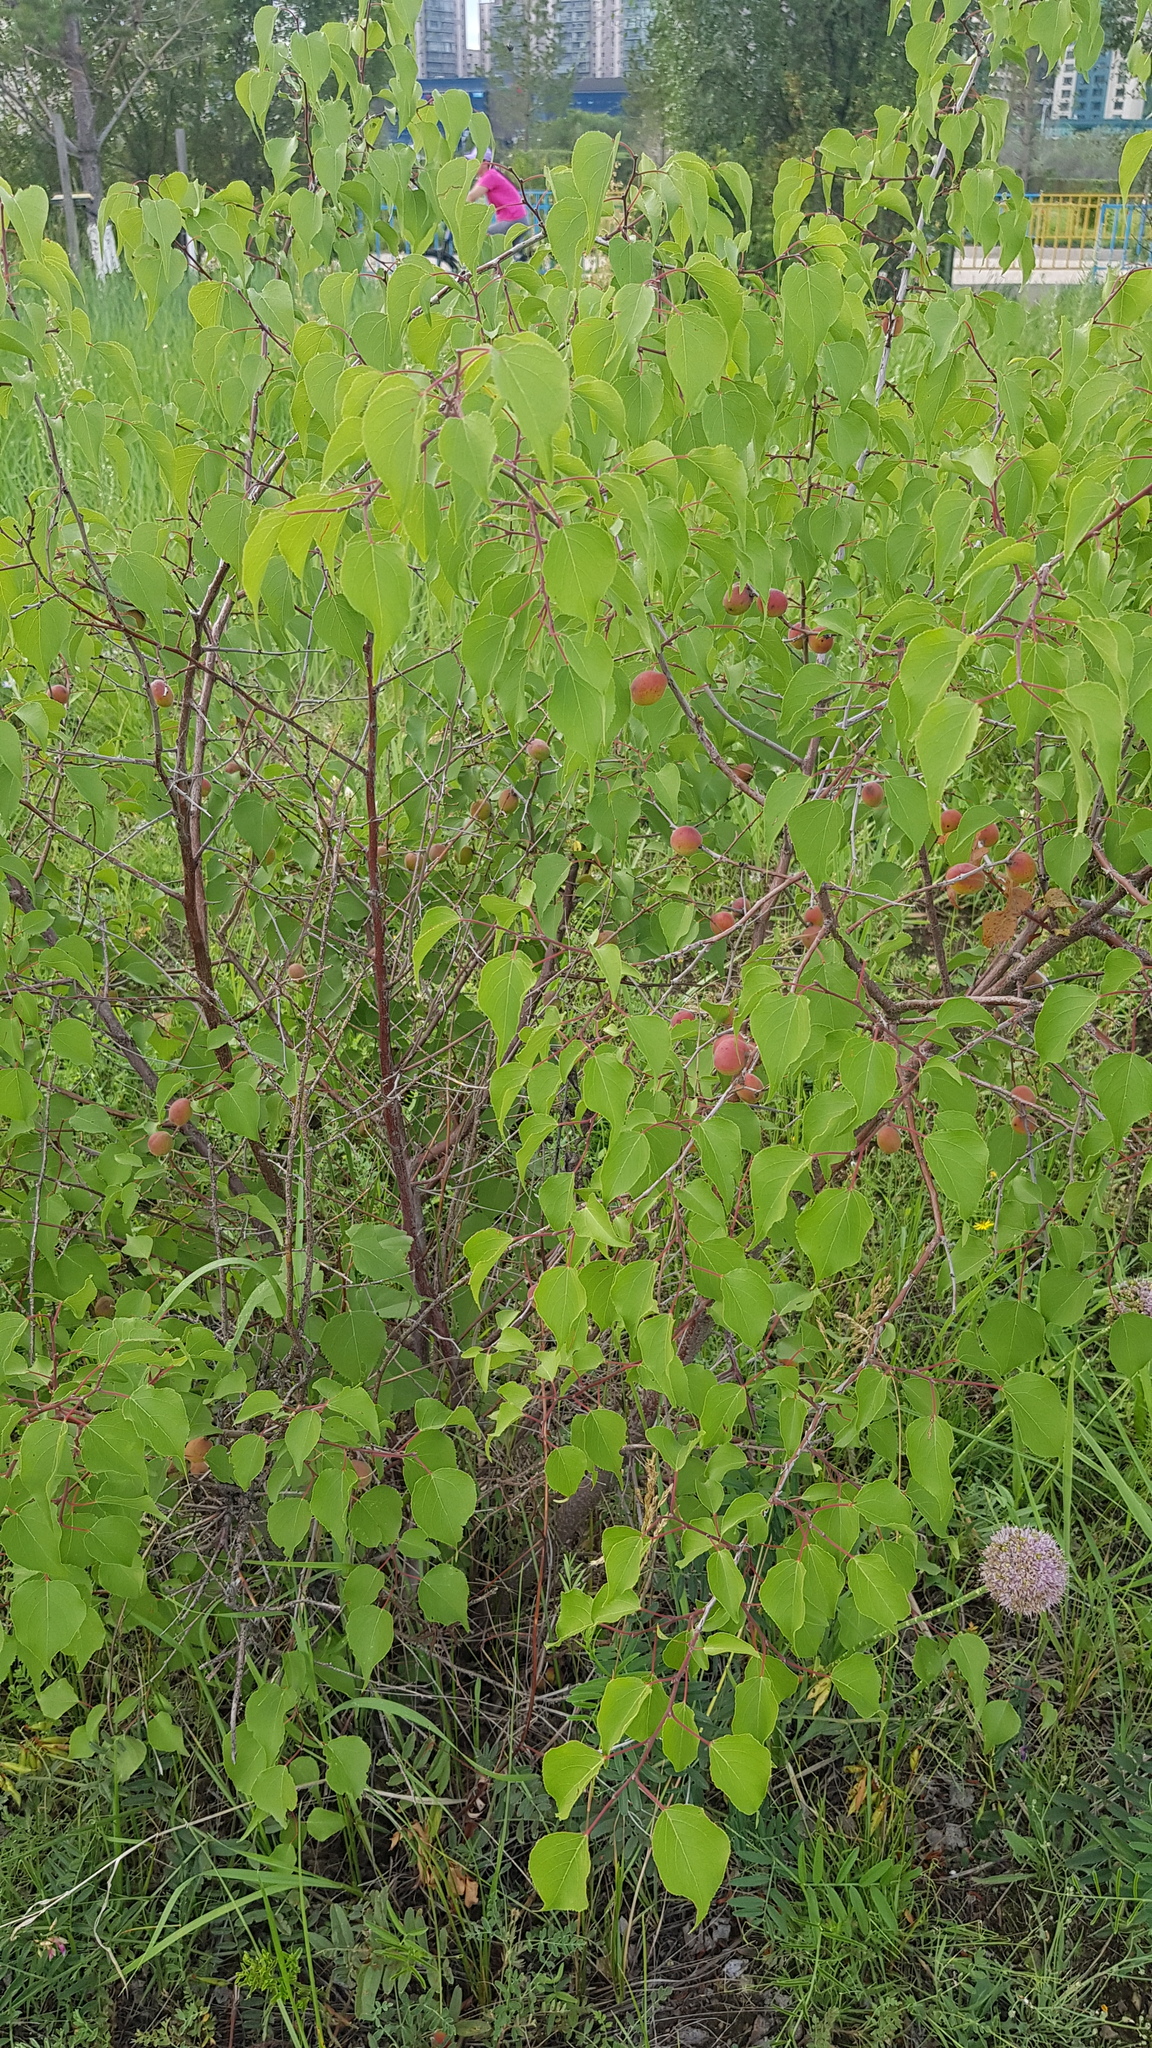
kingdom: Plantae
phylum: Tracheophyta
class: Magnoliopsida
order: Rosales
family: Rosaceae
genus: Prunus
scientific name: Prunus sibirica
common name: Siberian apricot
